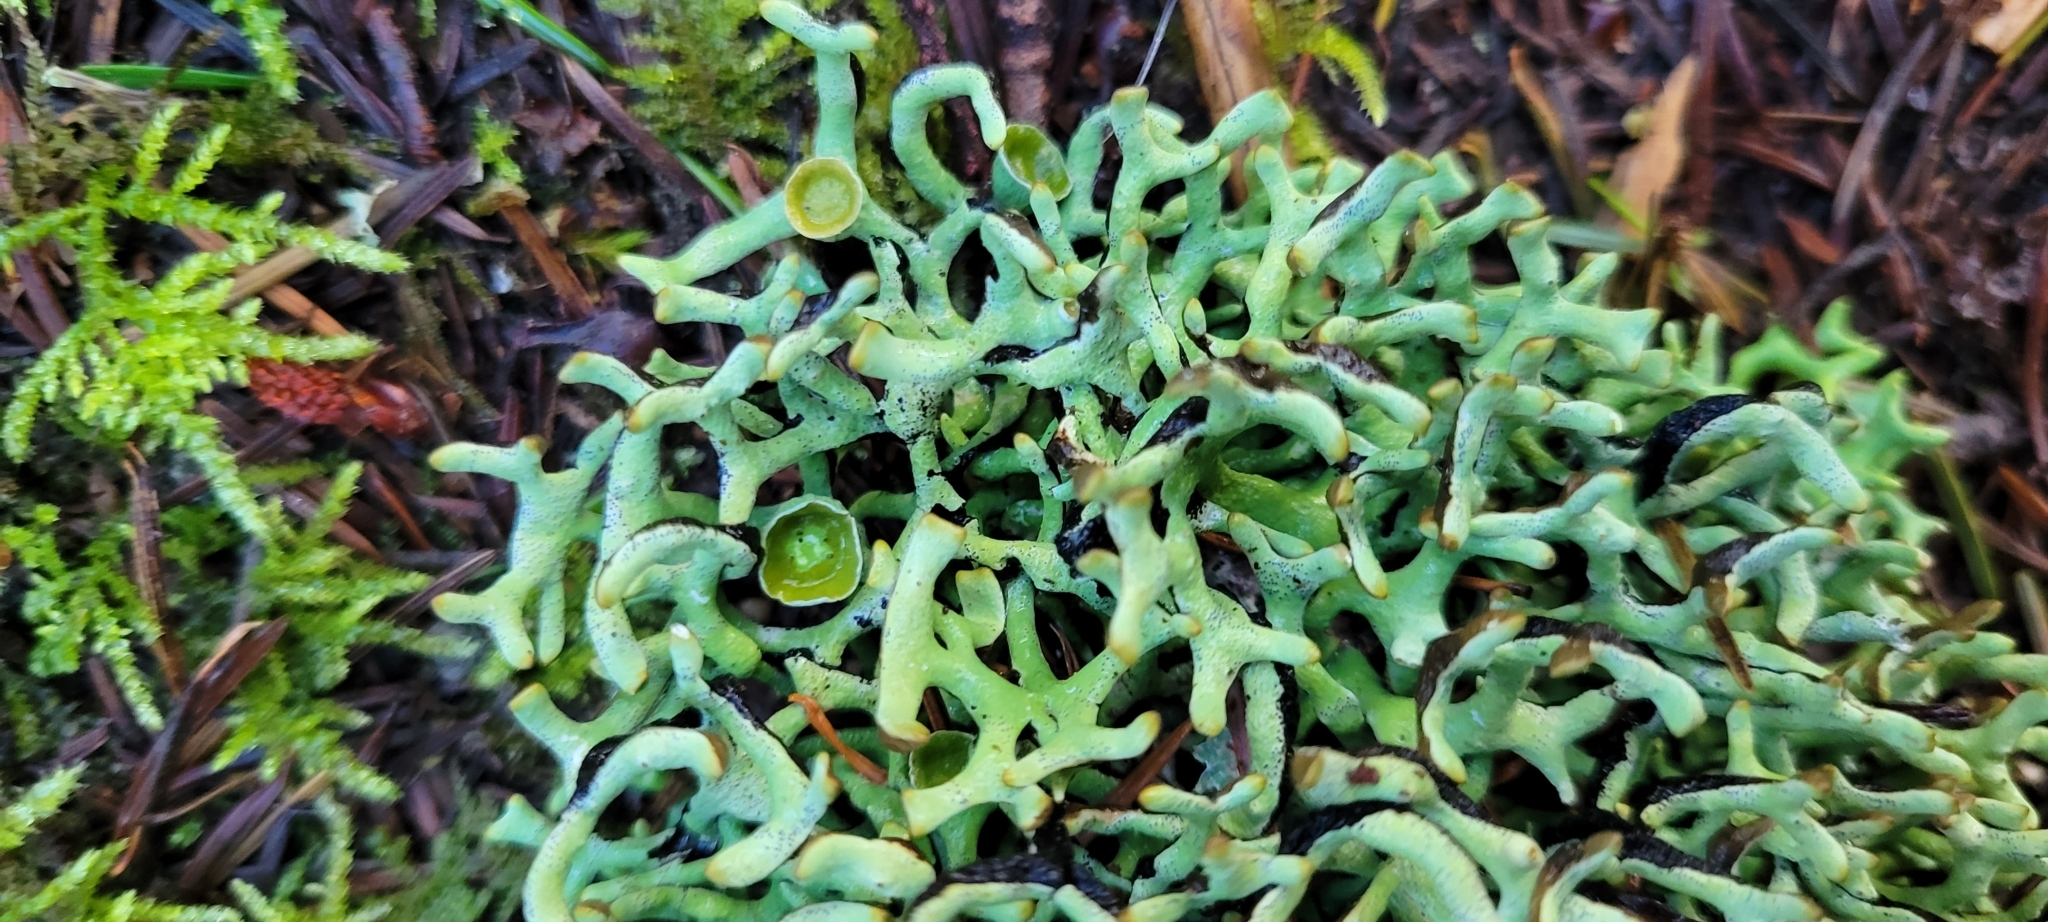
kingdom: Fungi
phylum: Ascomycota
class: Lecanoromycetes
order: Lecanorales
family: Parmeliaceae
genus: Hypogymnia
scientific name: Hypogymnia
